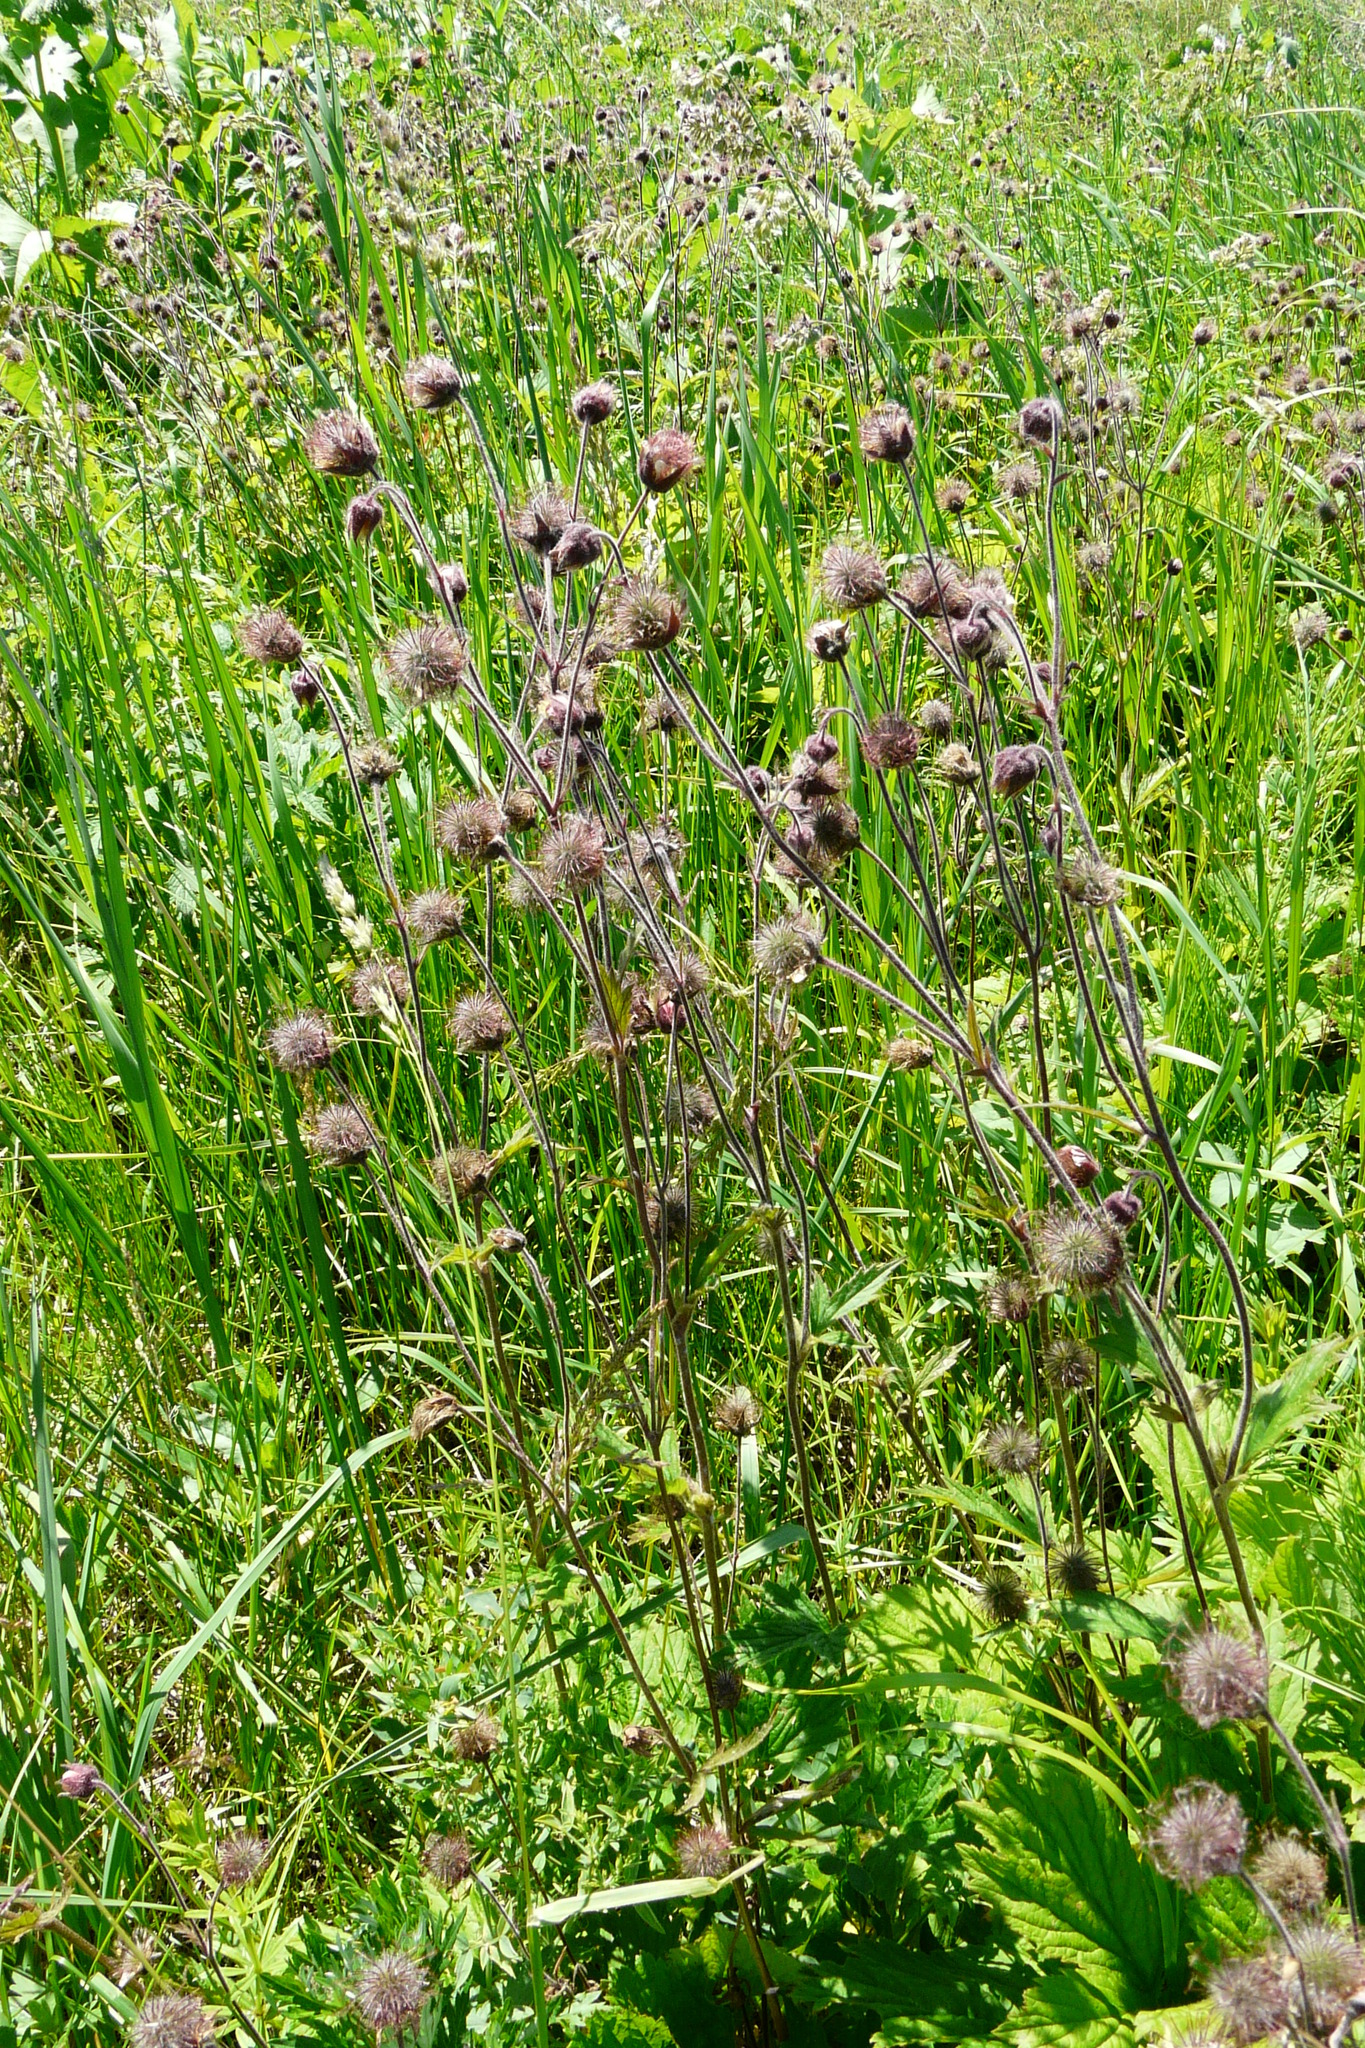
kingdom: Plantae
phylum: Tracheophyta
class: Magnoliopsida
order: Rosales
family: Rosaceae
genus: Geum
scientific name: Geum rivale
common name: Water avens
